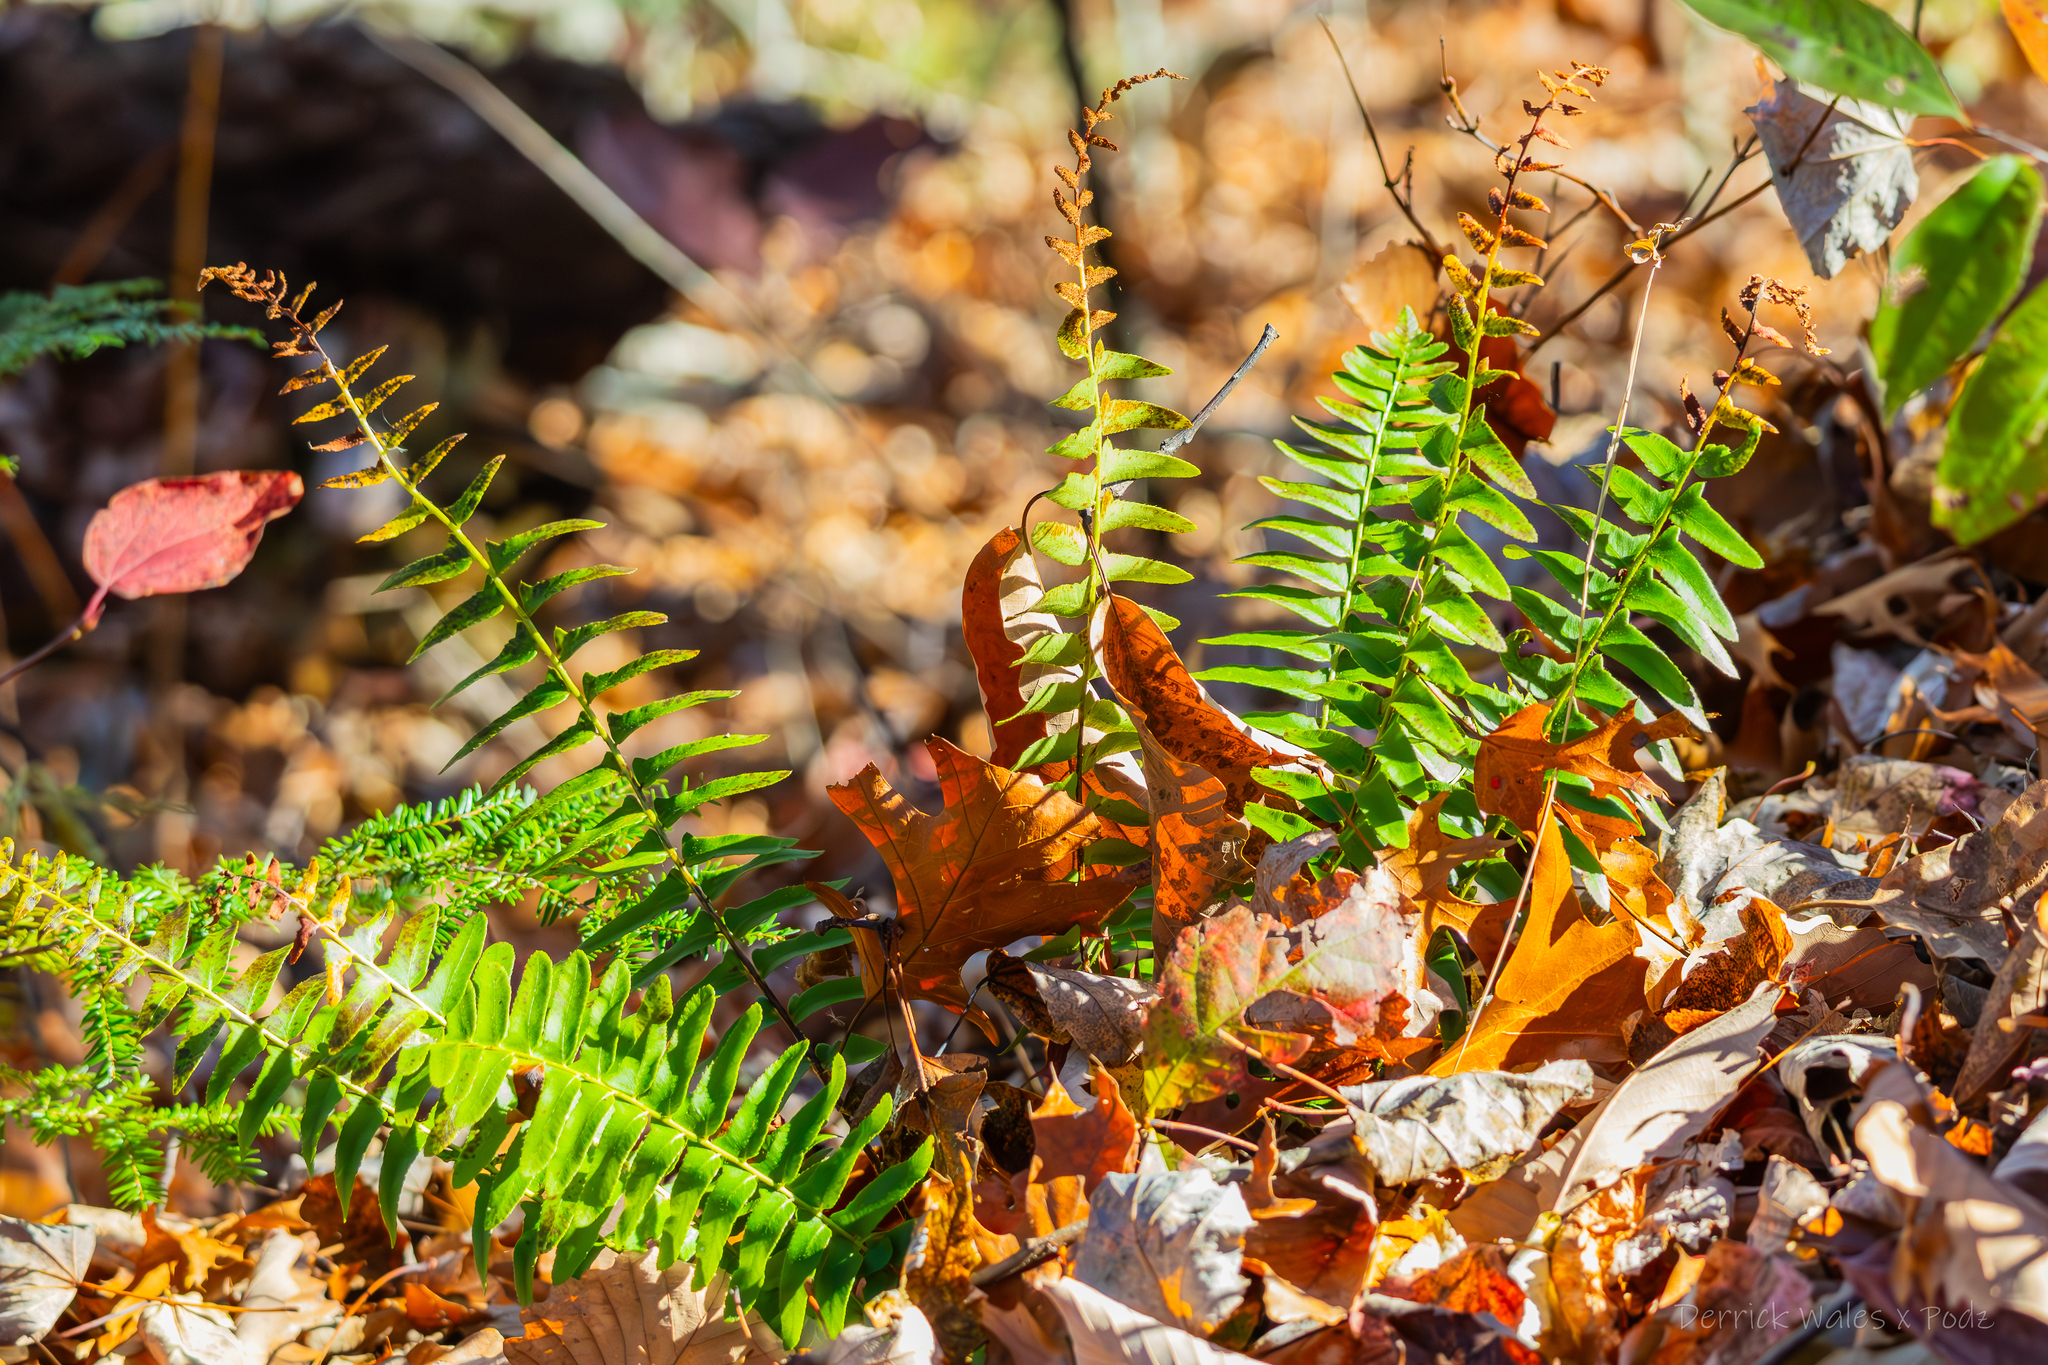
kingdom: Plantae
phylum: Tracheophyta
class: Polypodiopsida
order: Polypodiales
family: Dryopteridaceae
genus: Polystichum
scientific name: Polystichum acrostichoides
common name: Christmas fern
